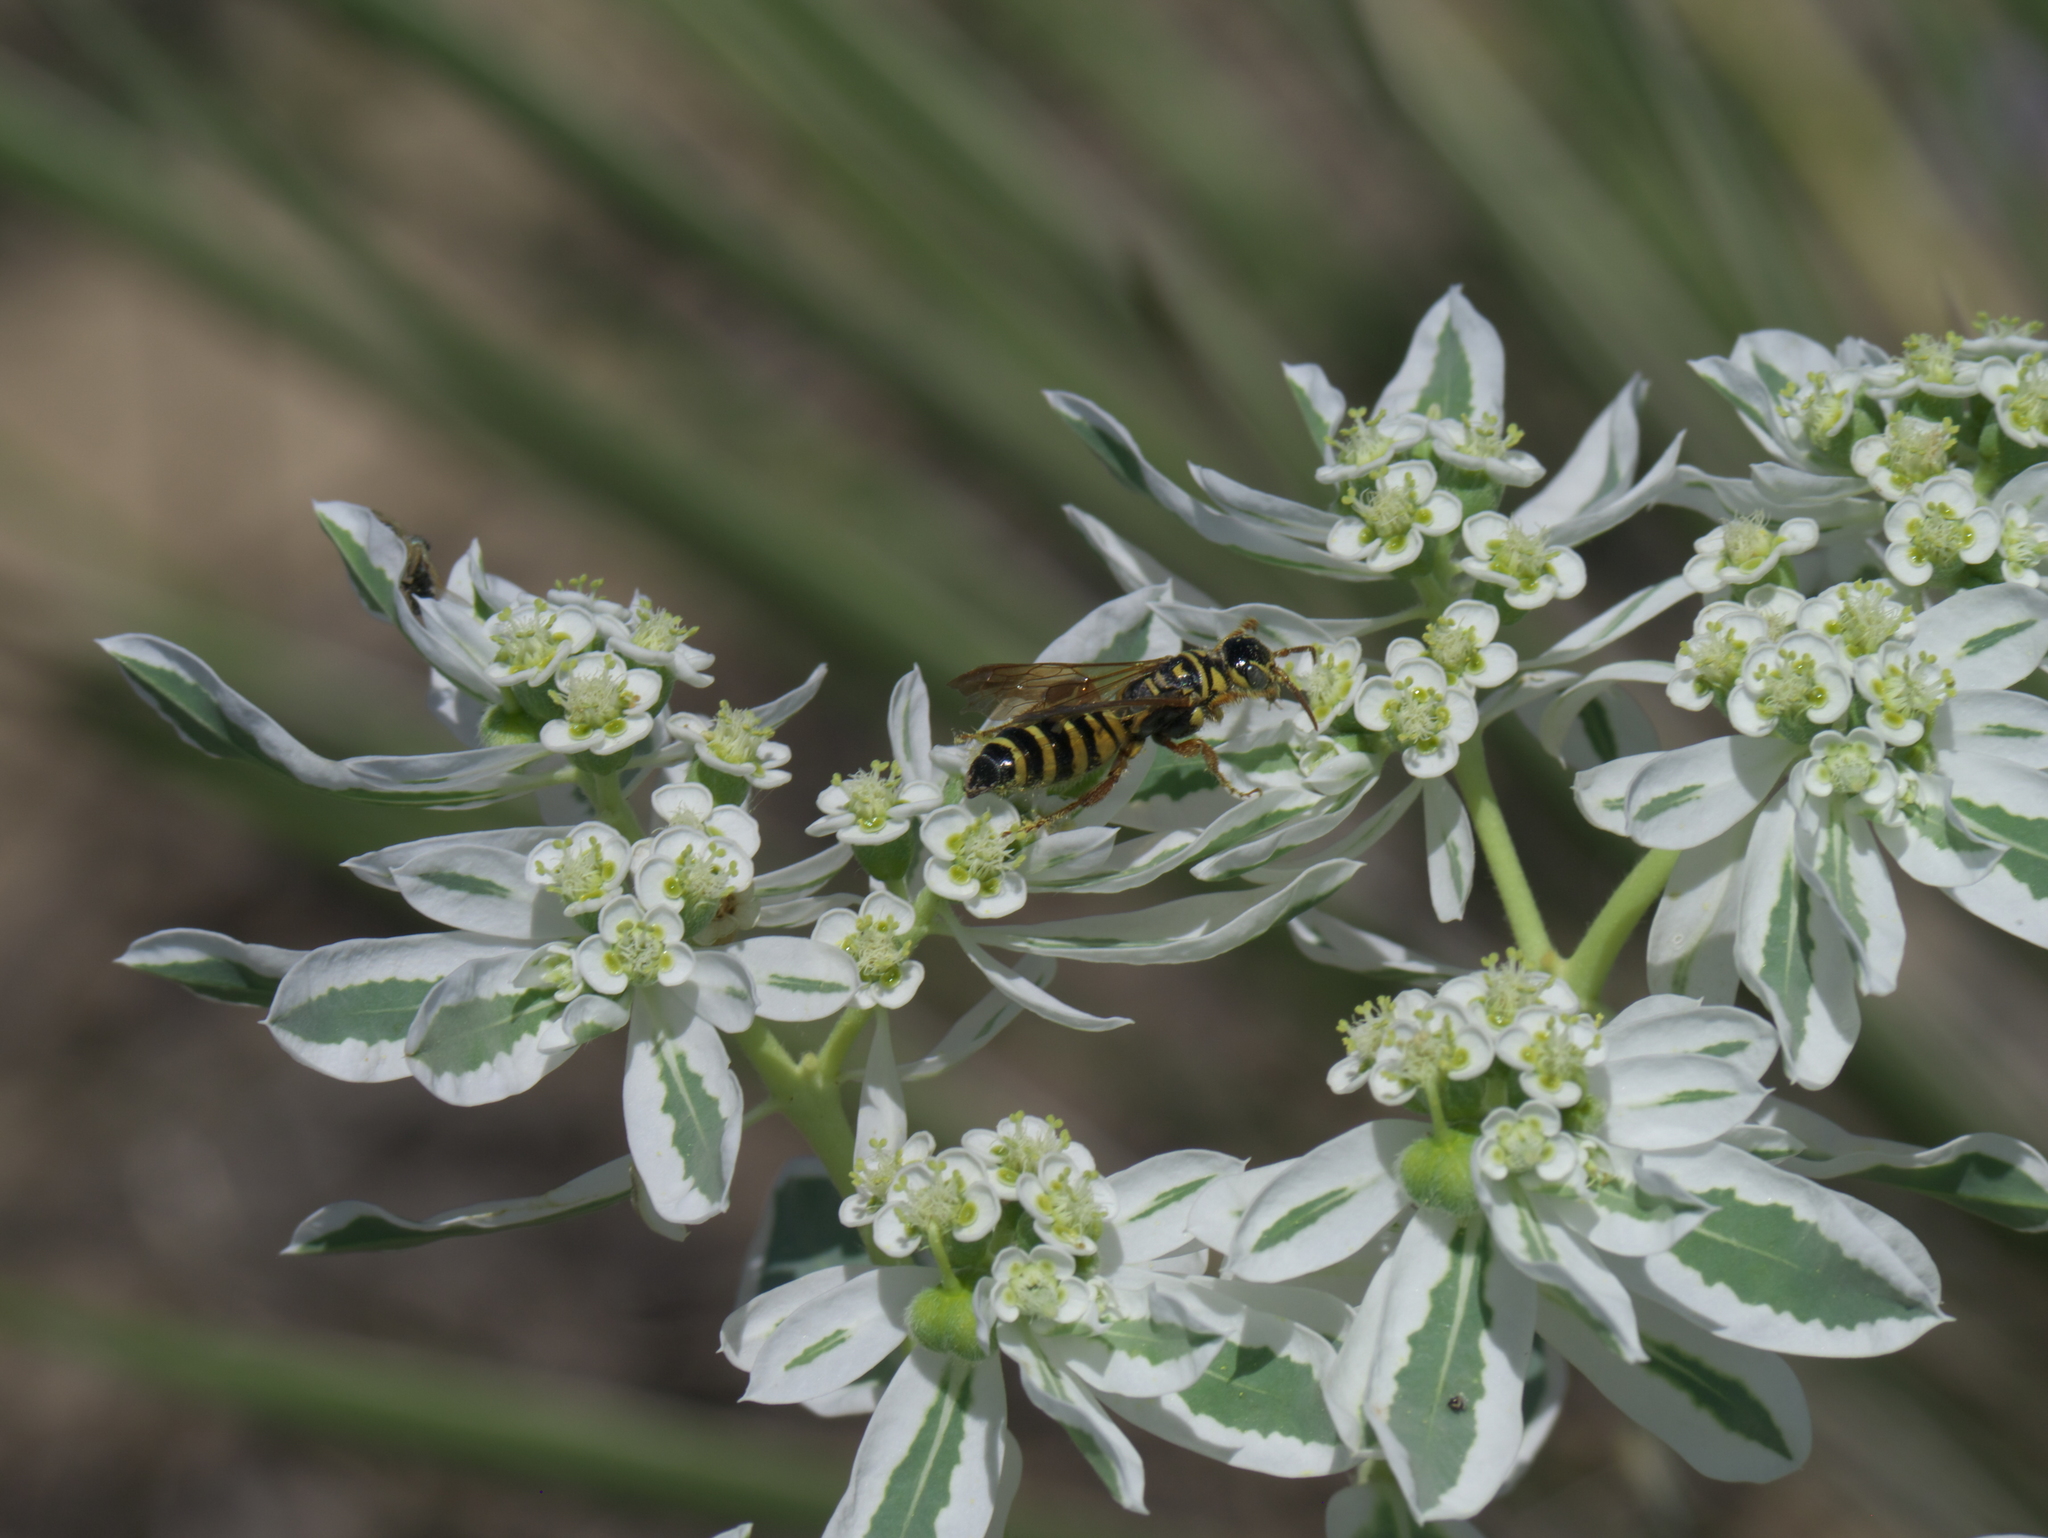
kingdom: Plantae
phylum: Tracheophyta
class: Magnoliopsida
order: Malpighiales
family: Euphorbiaceae
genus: Euphorbia
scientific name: Euphorbia marginata
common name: Ghostweed
